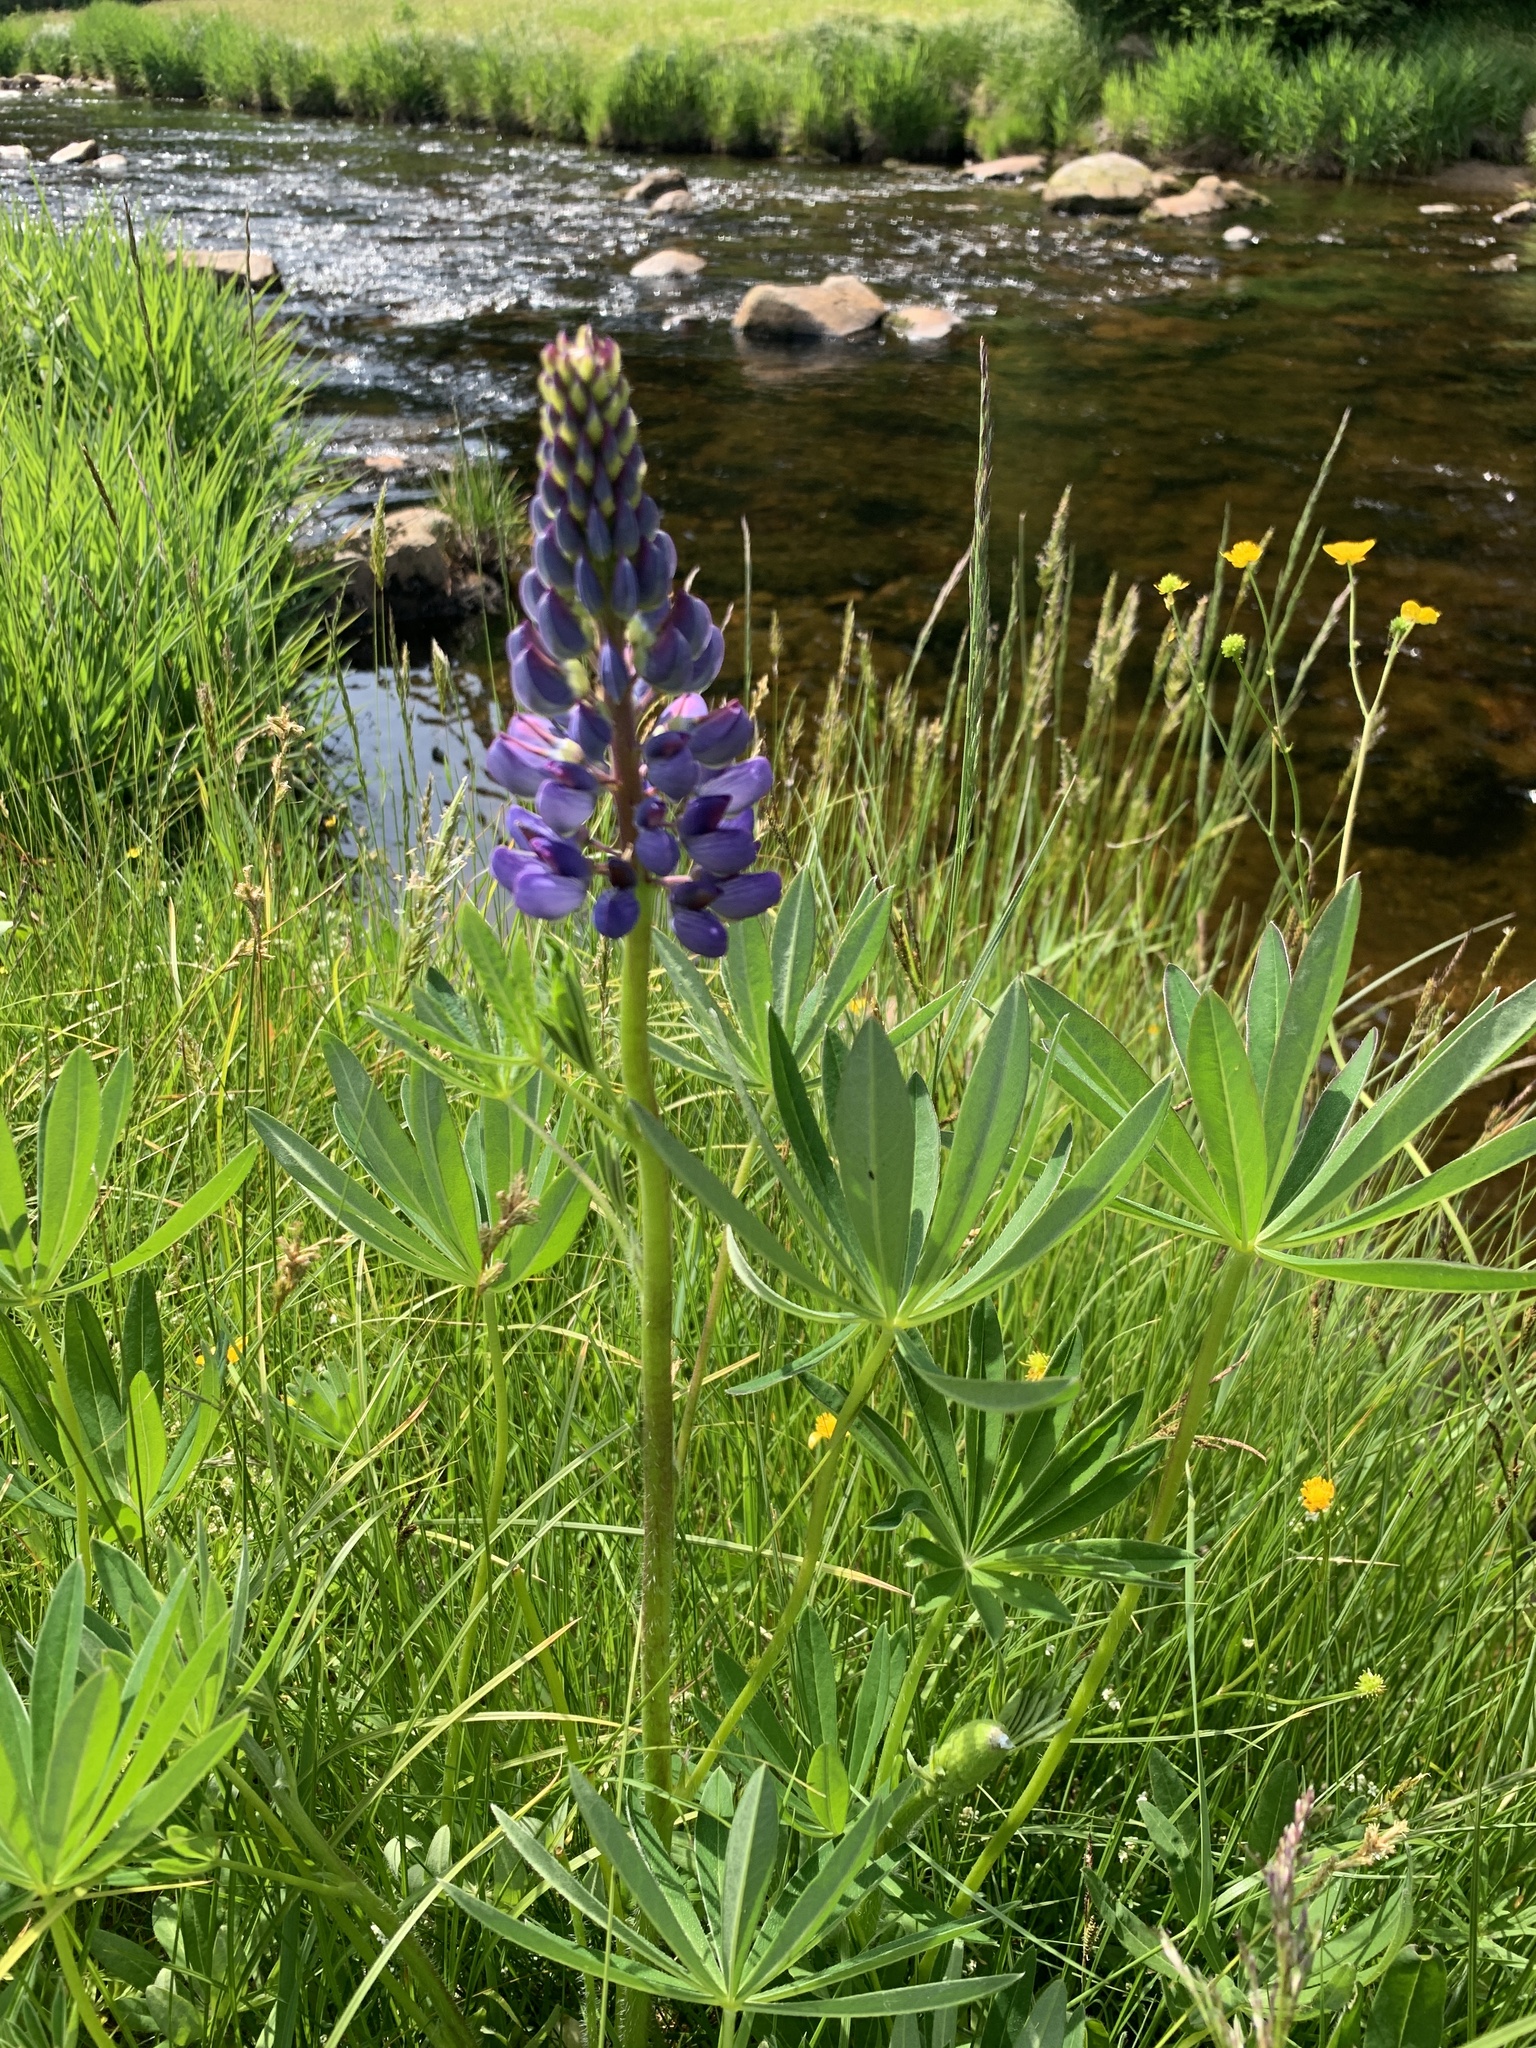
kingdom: Plantae
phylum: Tracheophyta
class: Magnoliopsida
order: Fabales
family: Fabaceae
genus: Lupinus
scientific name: Lupinus polyphyllus
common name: Garden lupin
